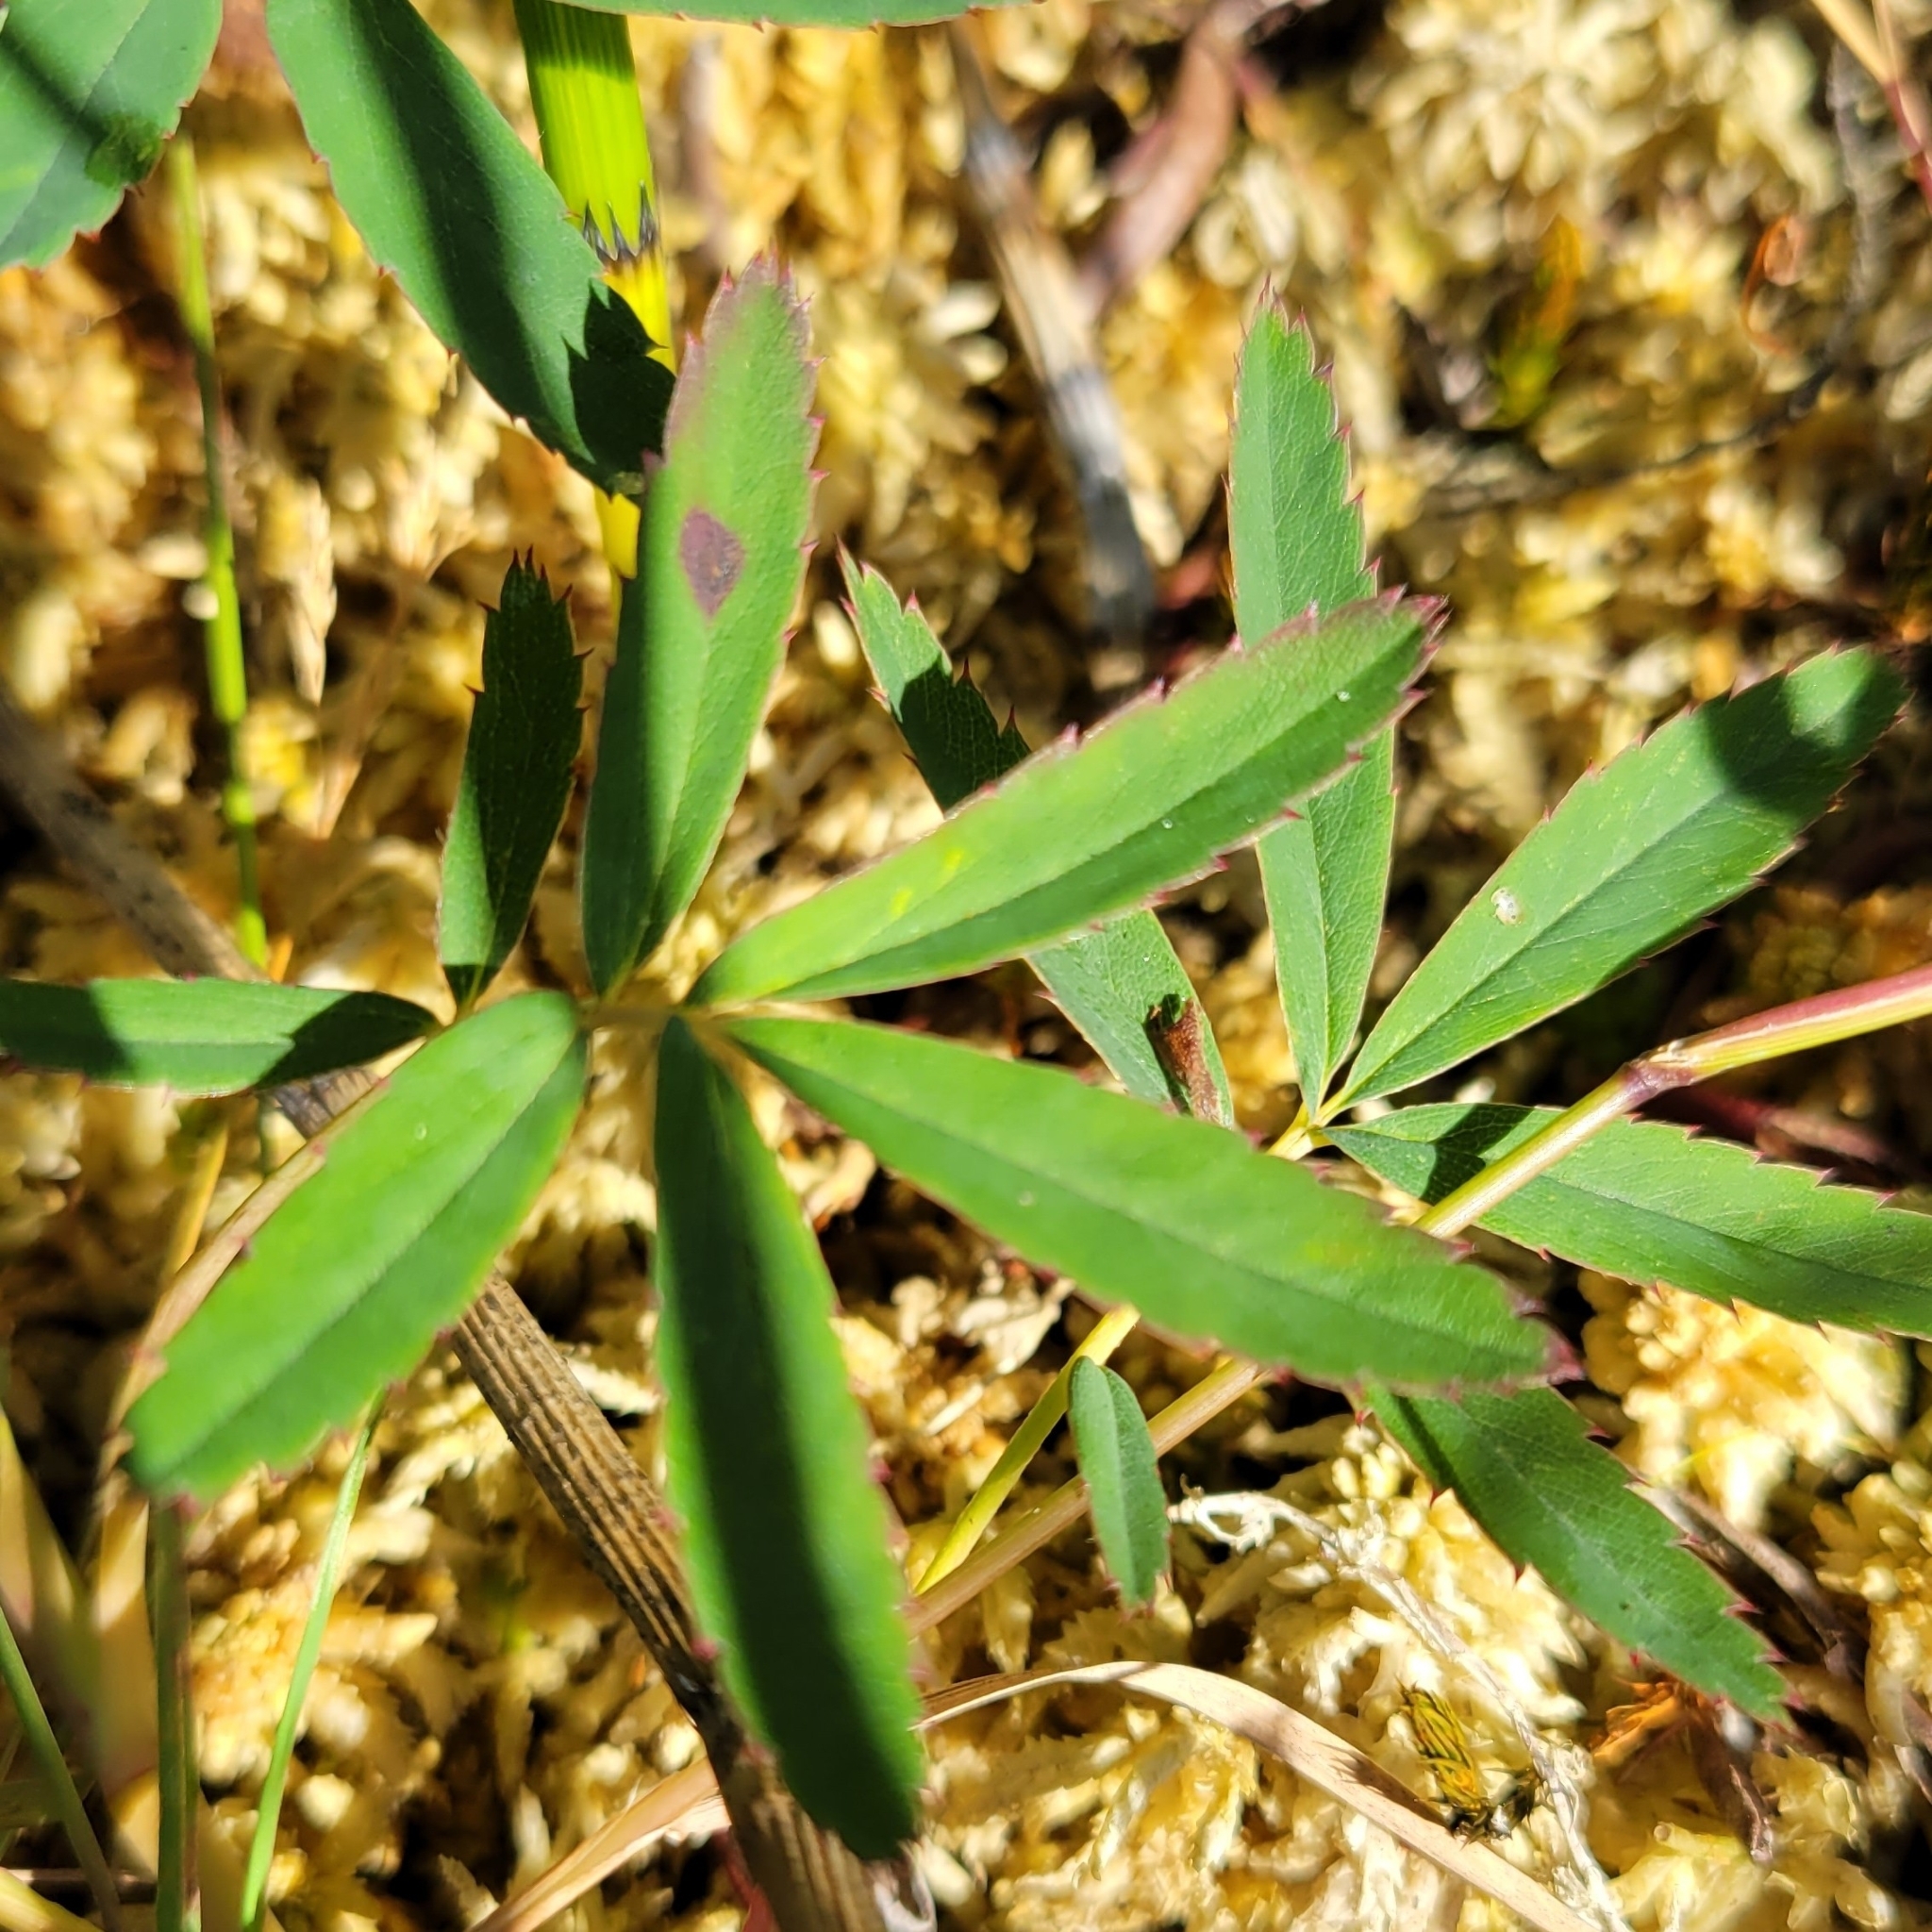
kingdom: Plantae
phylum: Tracheophyta
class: Magnoliopsida
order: Rosales
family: Rosaceae
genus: Comarum
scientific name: Comarum palustre
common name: Marsh cinquefoil
